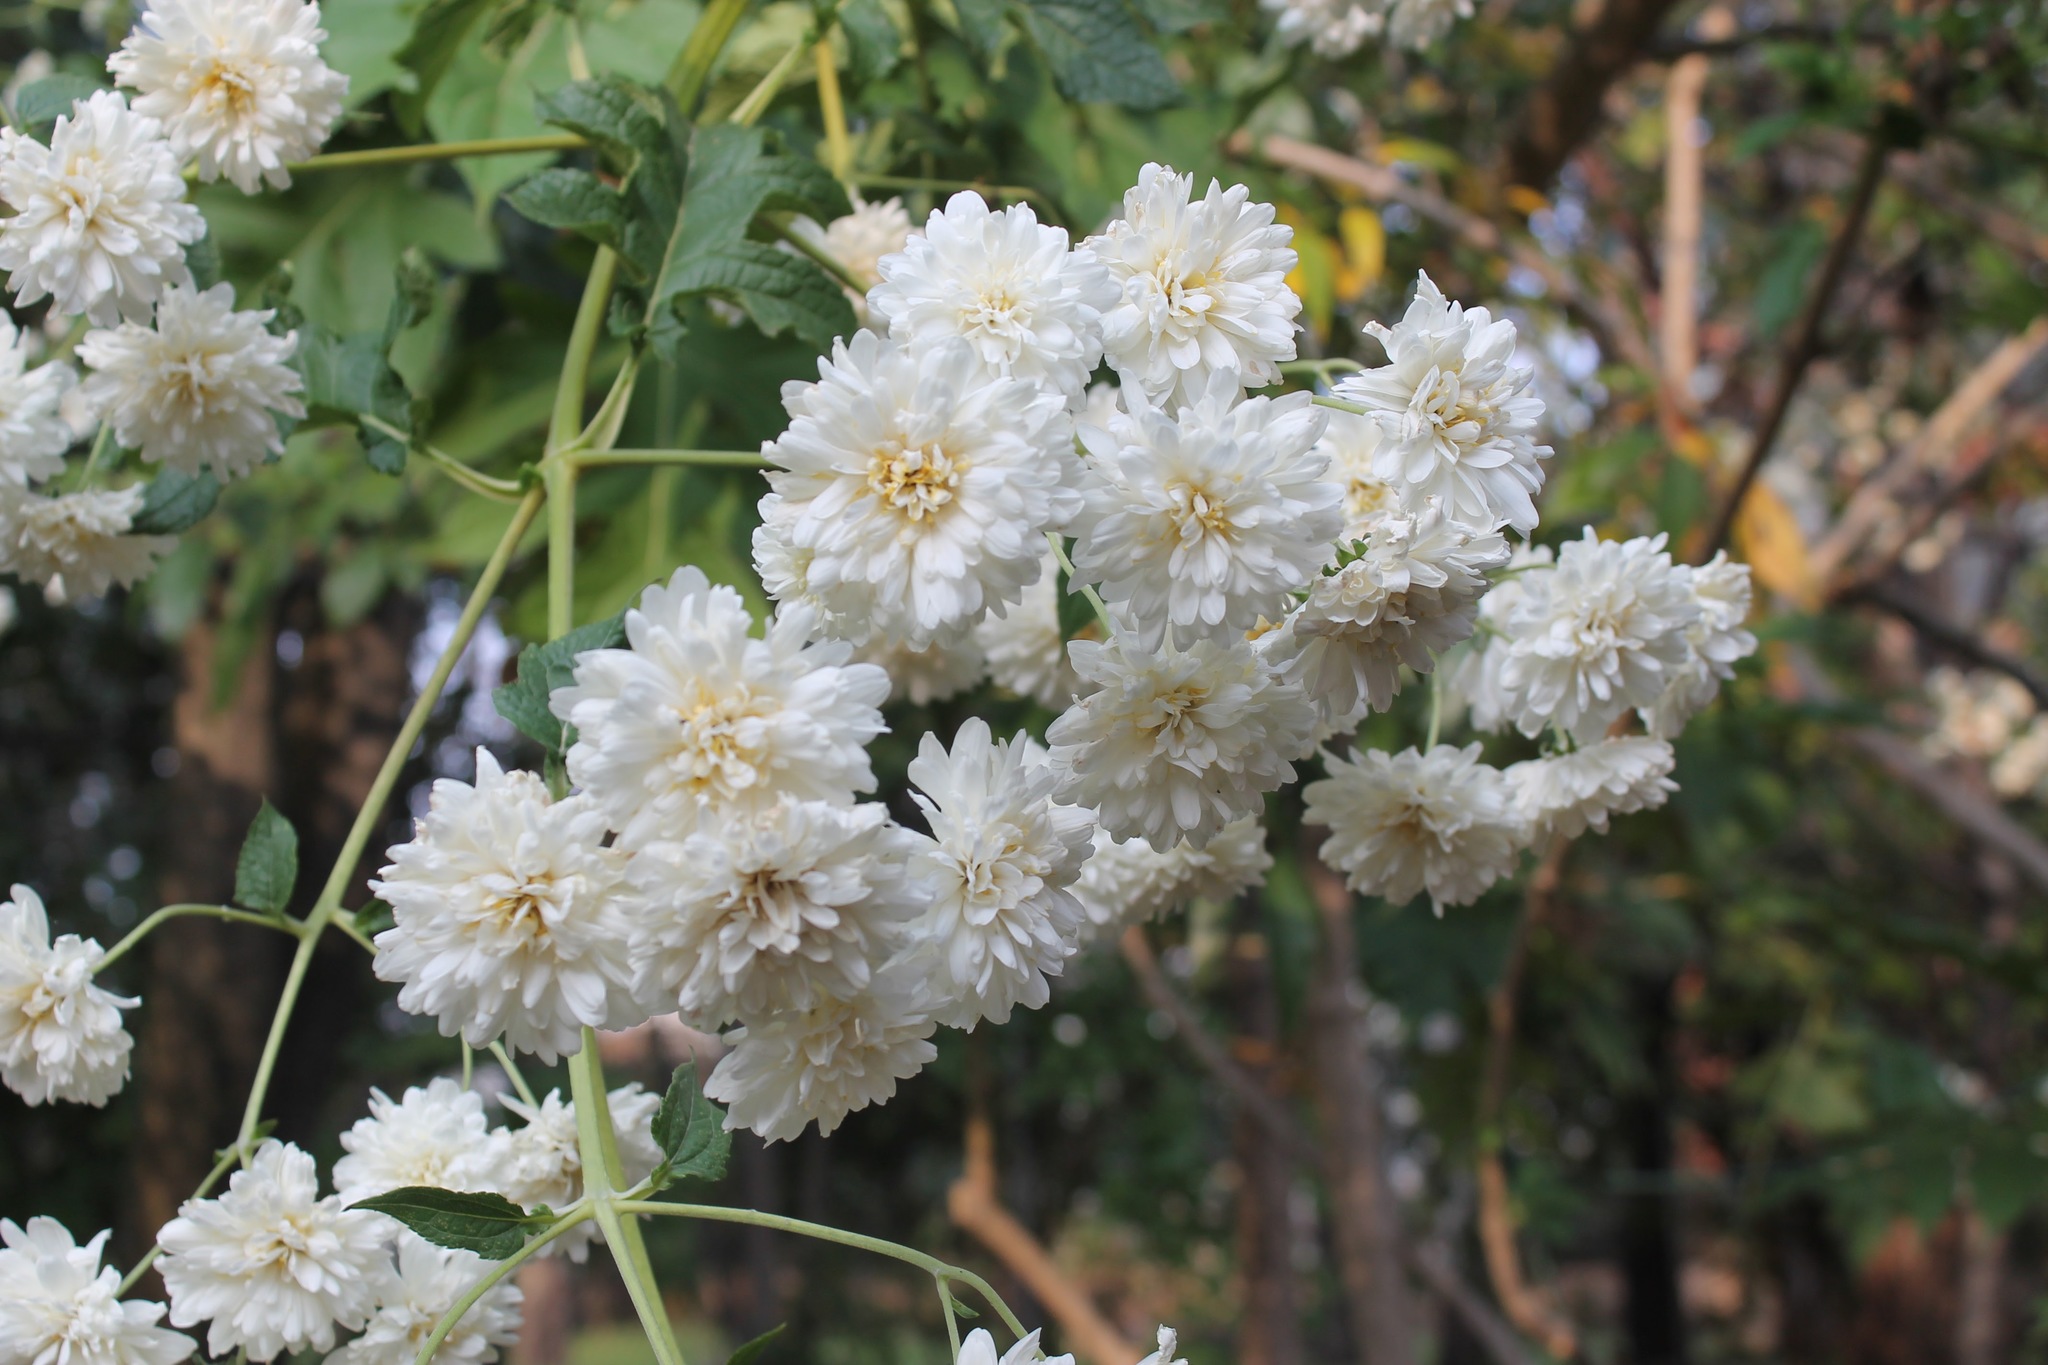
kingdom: Plantae
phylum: Tracheophyta
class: Magnoliopsida
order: Asterales
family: Asteraceae
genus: Montanoa
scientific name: Montanoa bipinnatifida
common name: Mexican daisy bush
